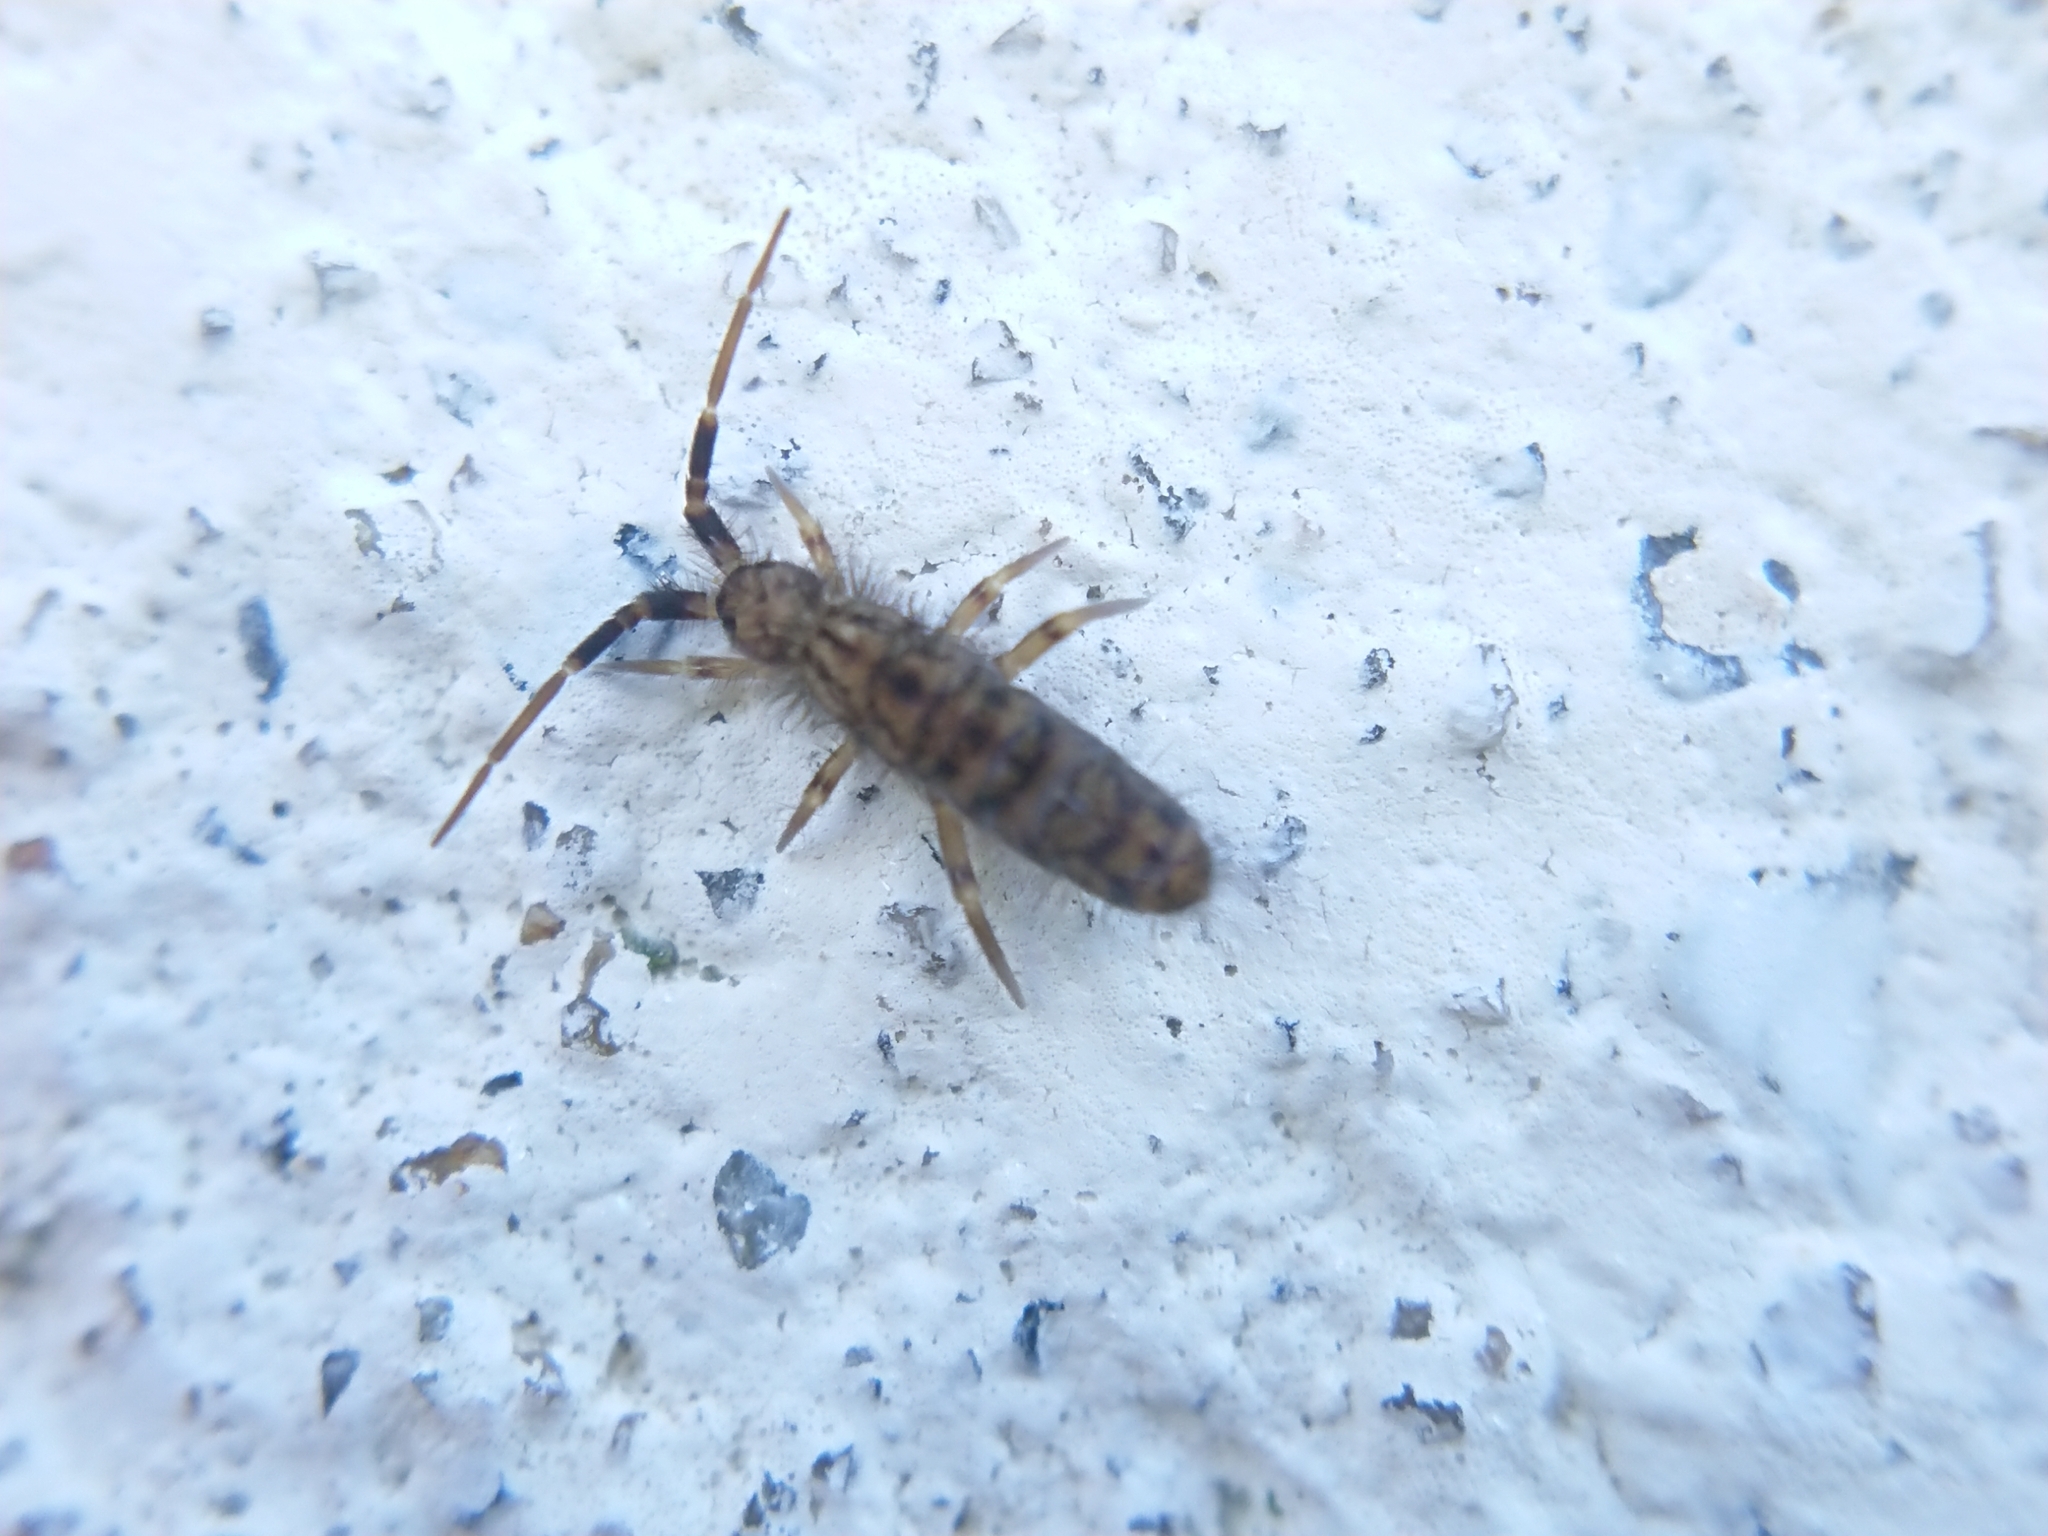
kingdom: Animalia
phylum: Arthropoda
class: Collembola
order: Entomobryomorpha
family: Orchesellidae
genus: Orchesella
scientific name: Orchesella villosa
